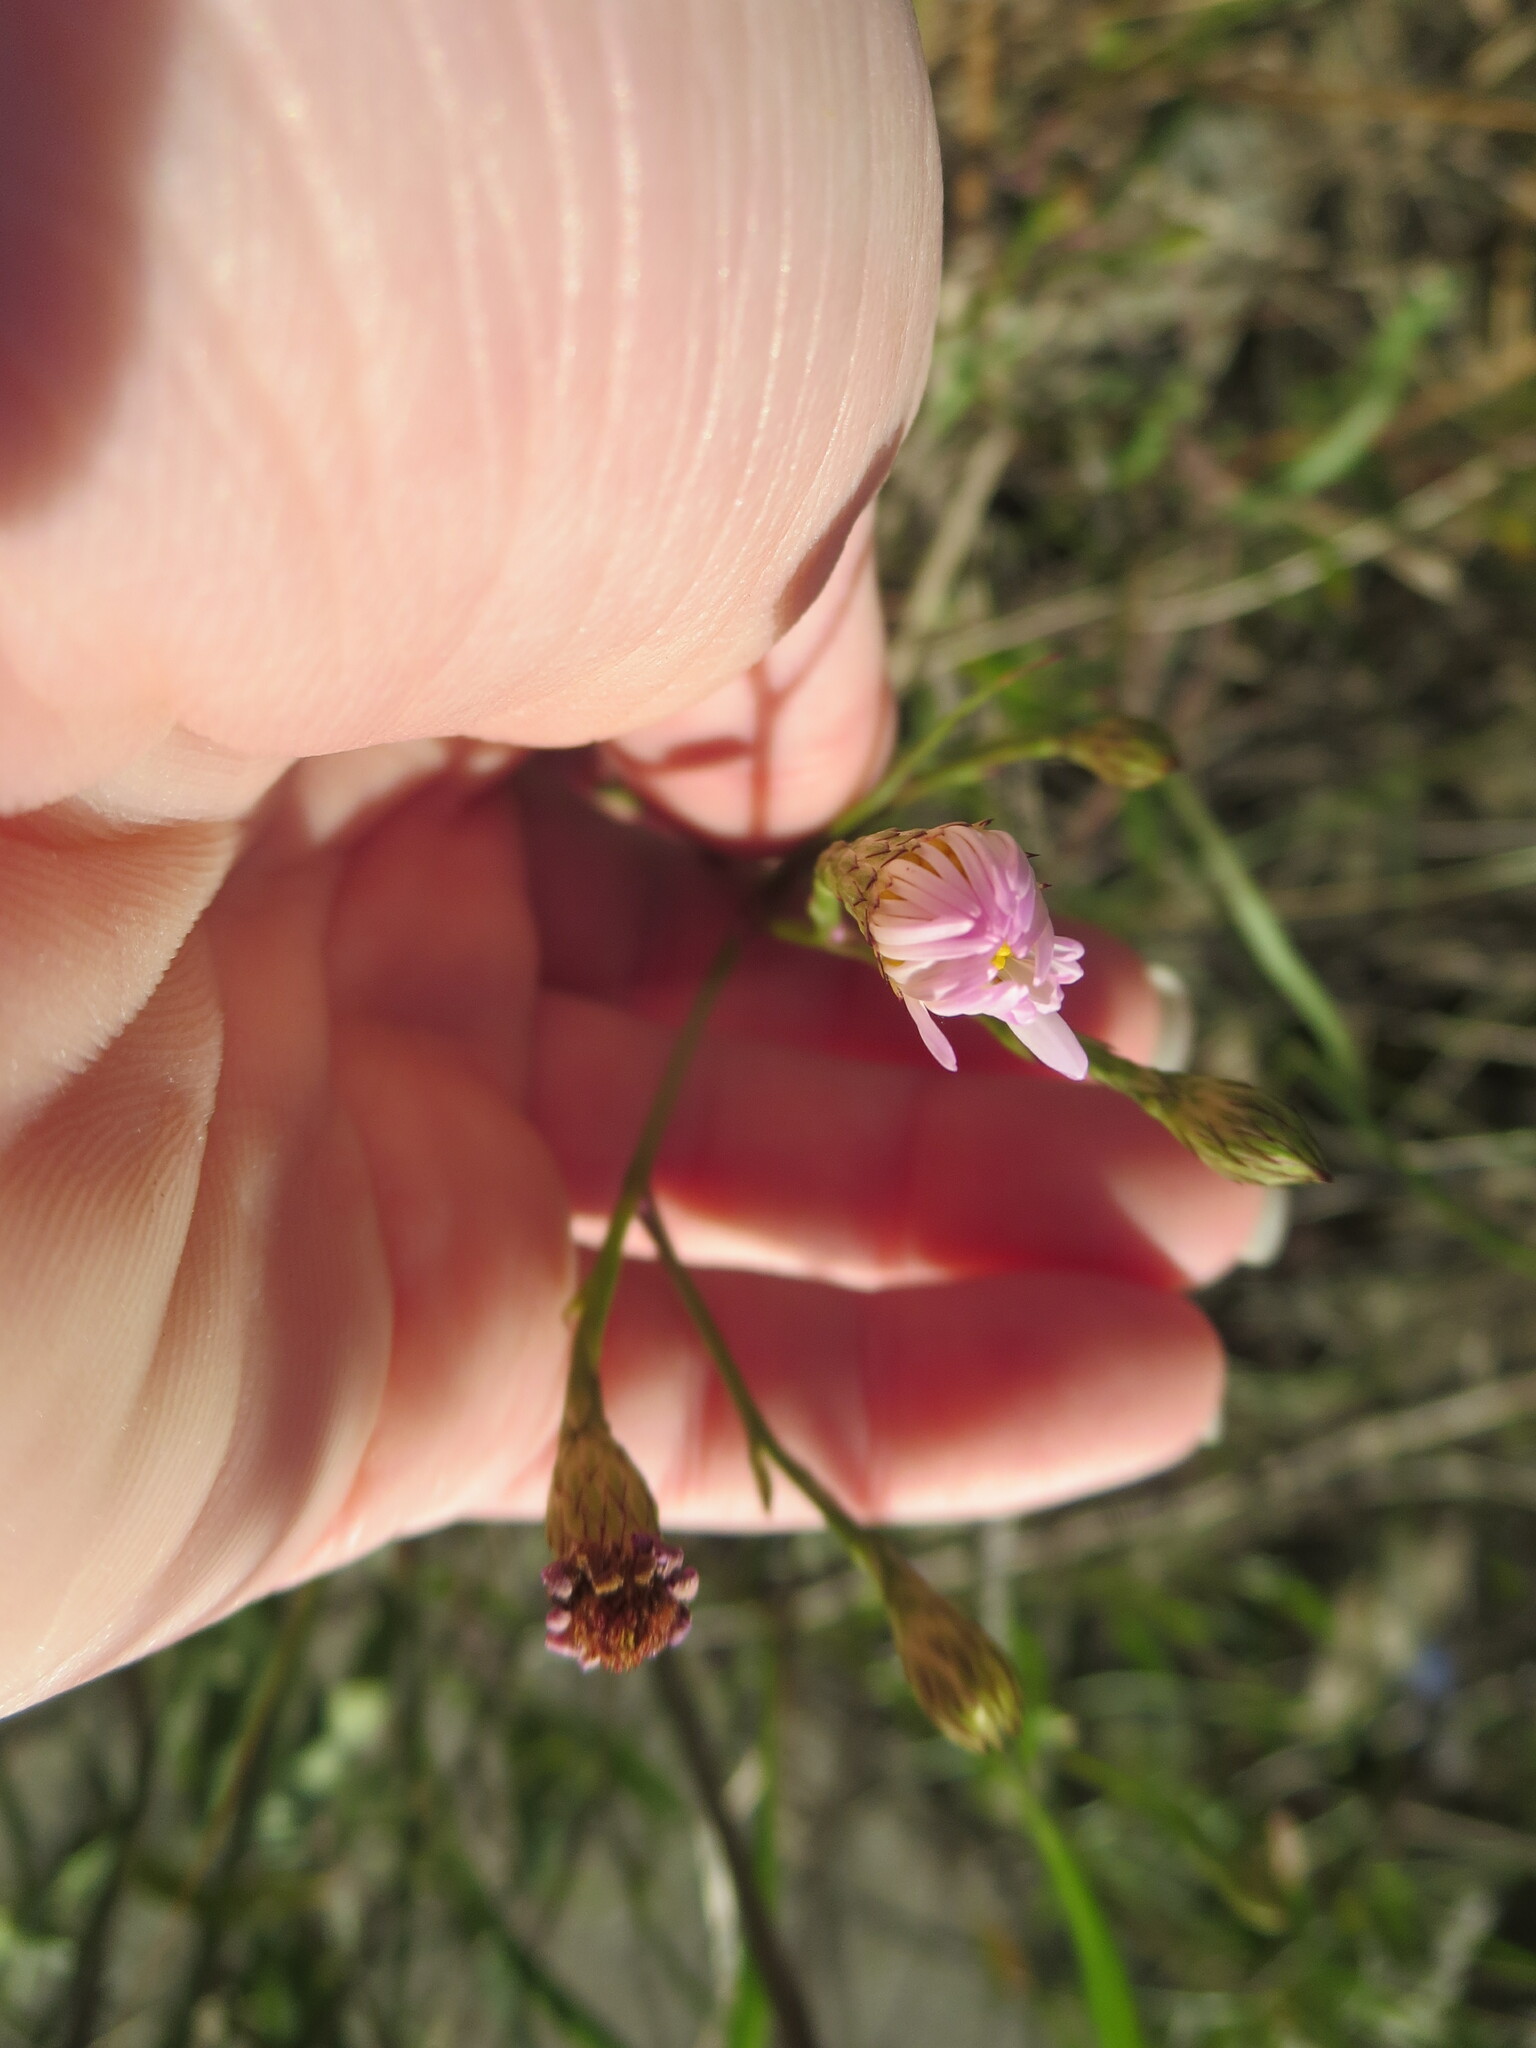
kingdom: Plantae
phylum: Tracheophyta
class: Magnoliopsida
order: Asterales
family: Asteraceae
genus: Symphyotrichum
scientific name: Symphyotrichum tenuifolium
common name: Perennial salt-marsh aster
